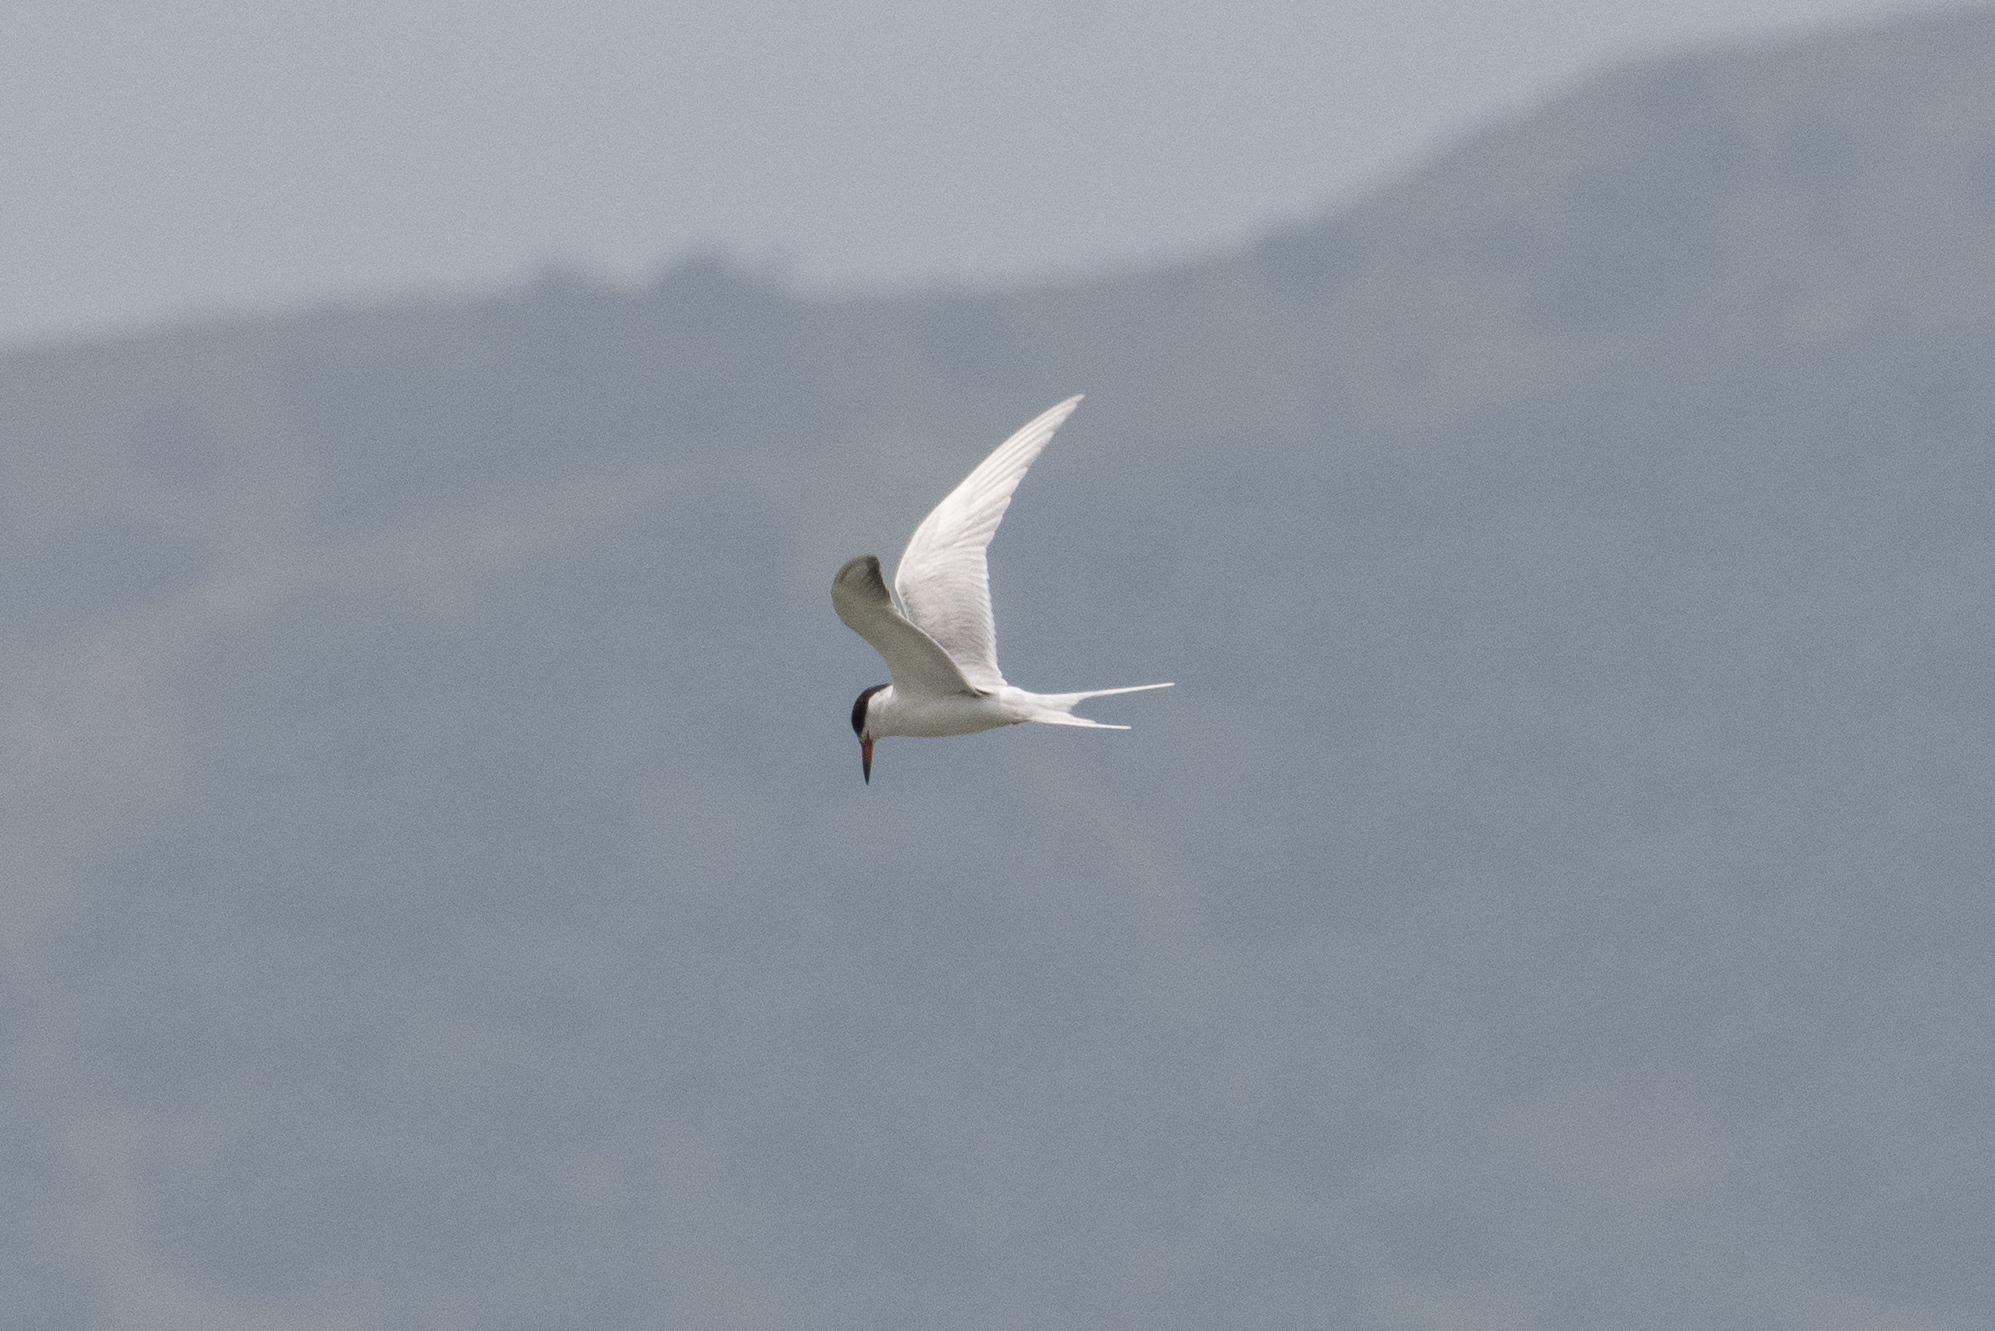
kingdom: Animalia
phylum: Chordata
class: Aves
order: Charadriiformes
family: Laridae
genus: Sterna
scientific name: Sterna forsteri
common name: Forster's tern
